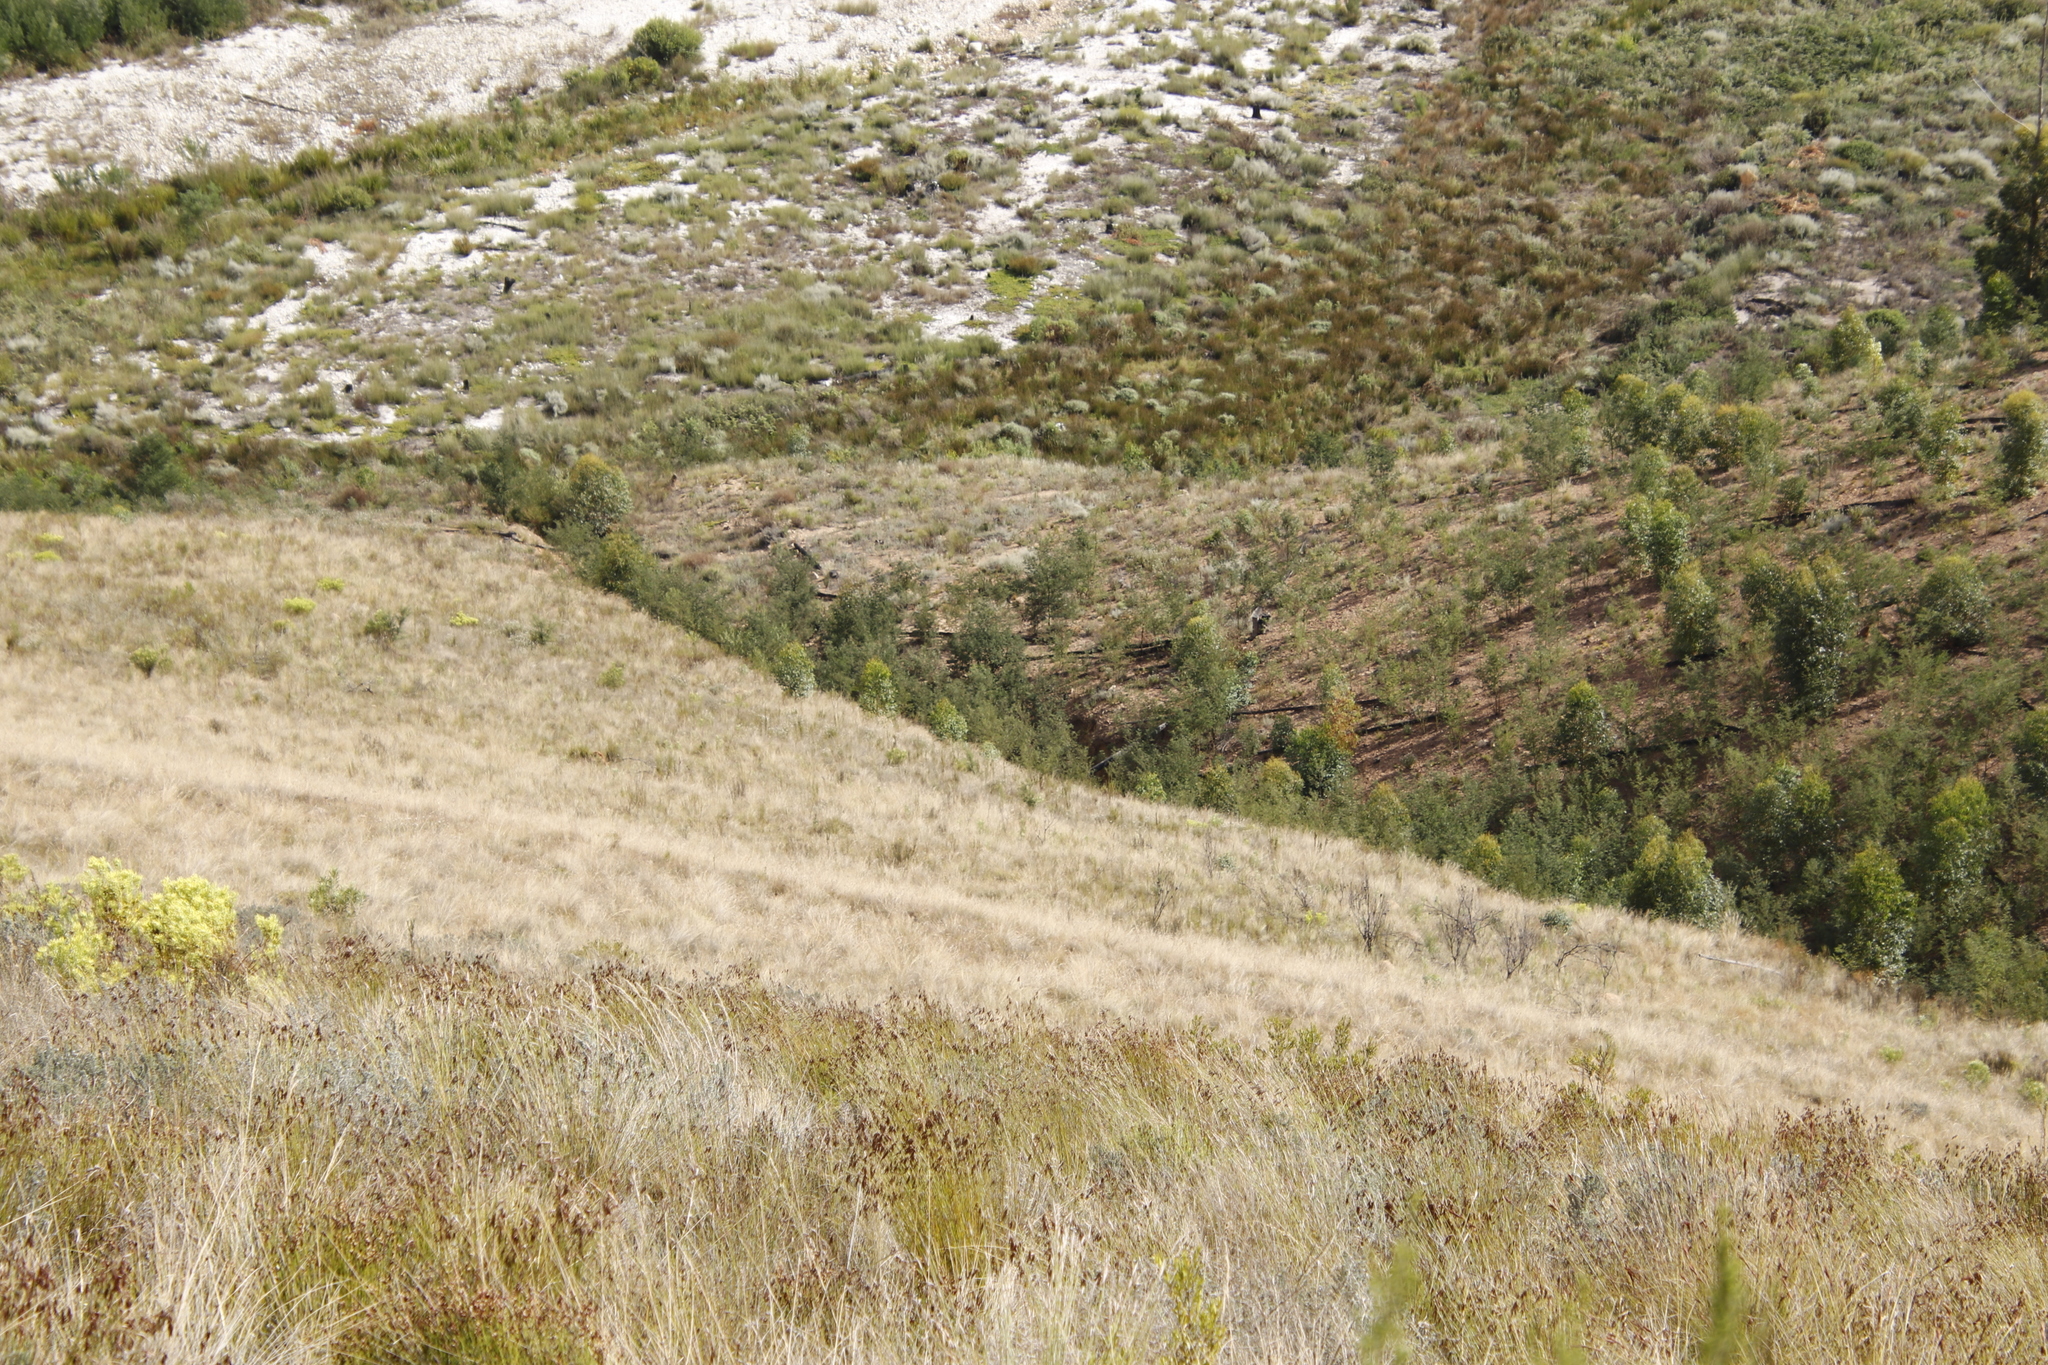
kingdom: Plantae
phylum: Tracheophyta
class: Magnoliopsida
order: Fabales
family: Fabaceae
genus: Acacia
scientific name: Acacia mearnsii
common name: Black wattle
